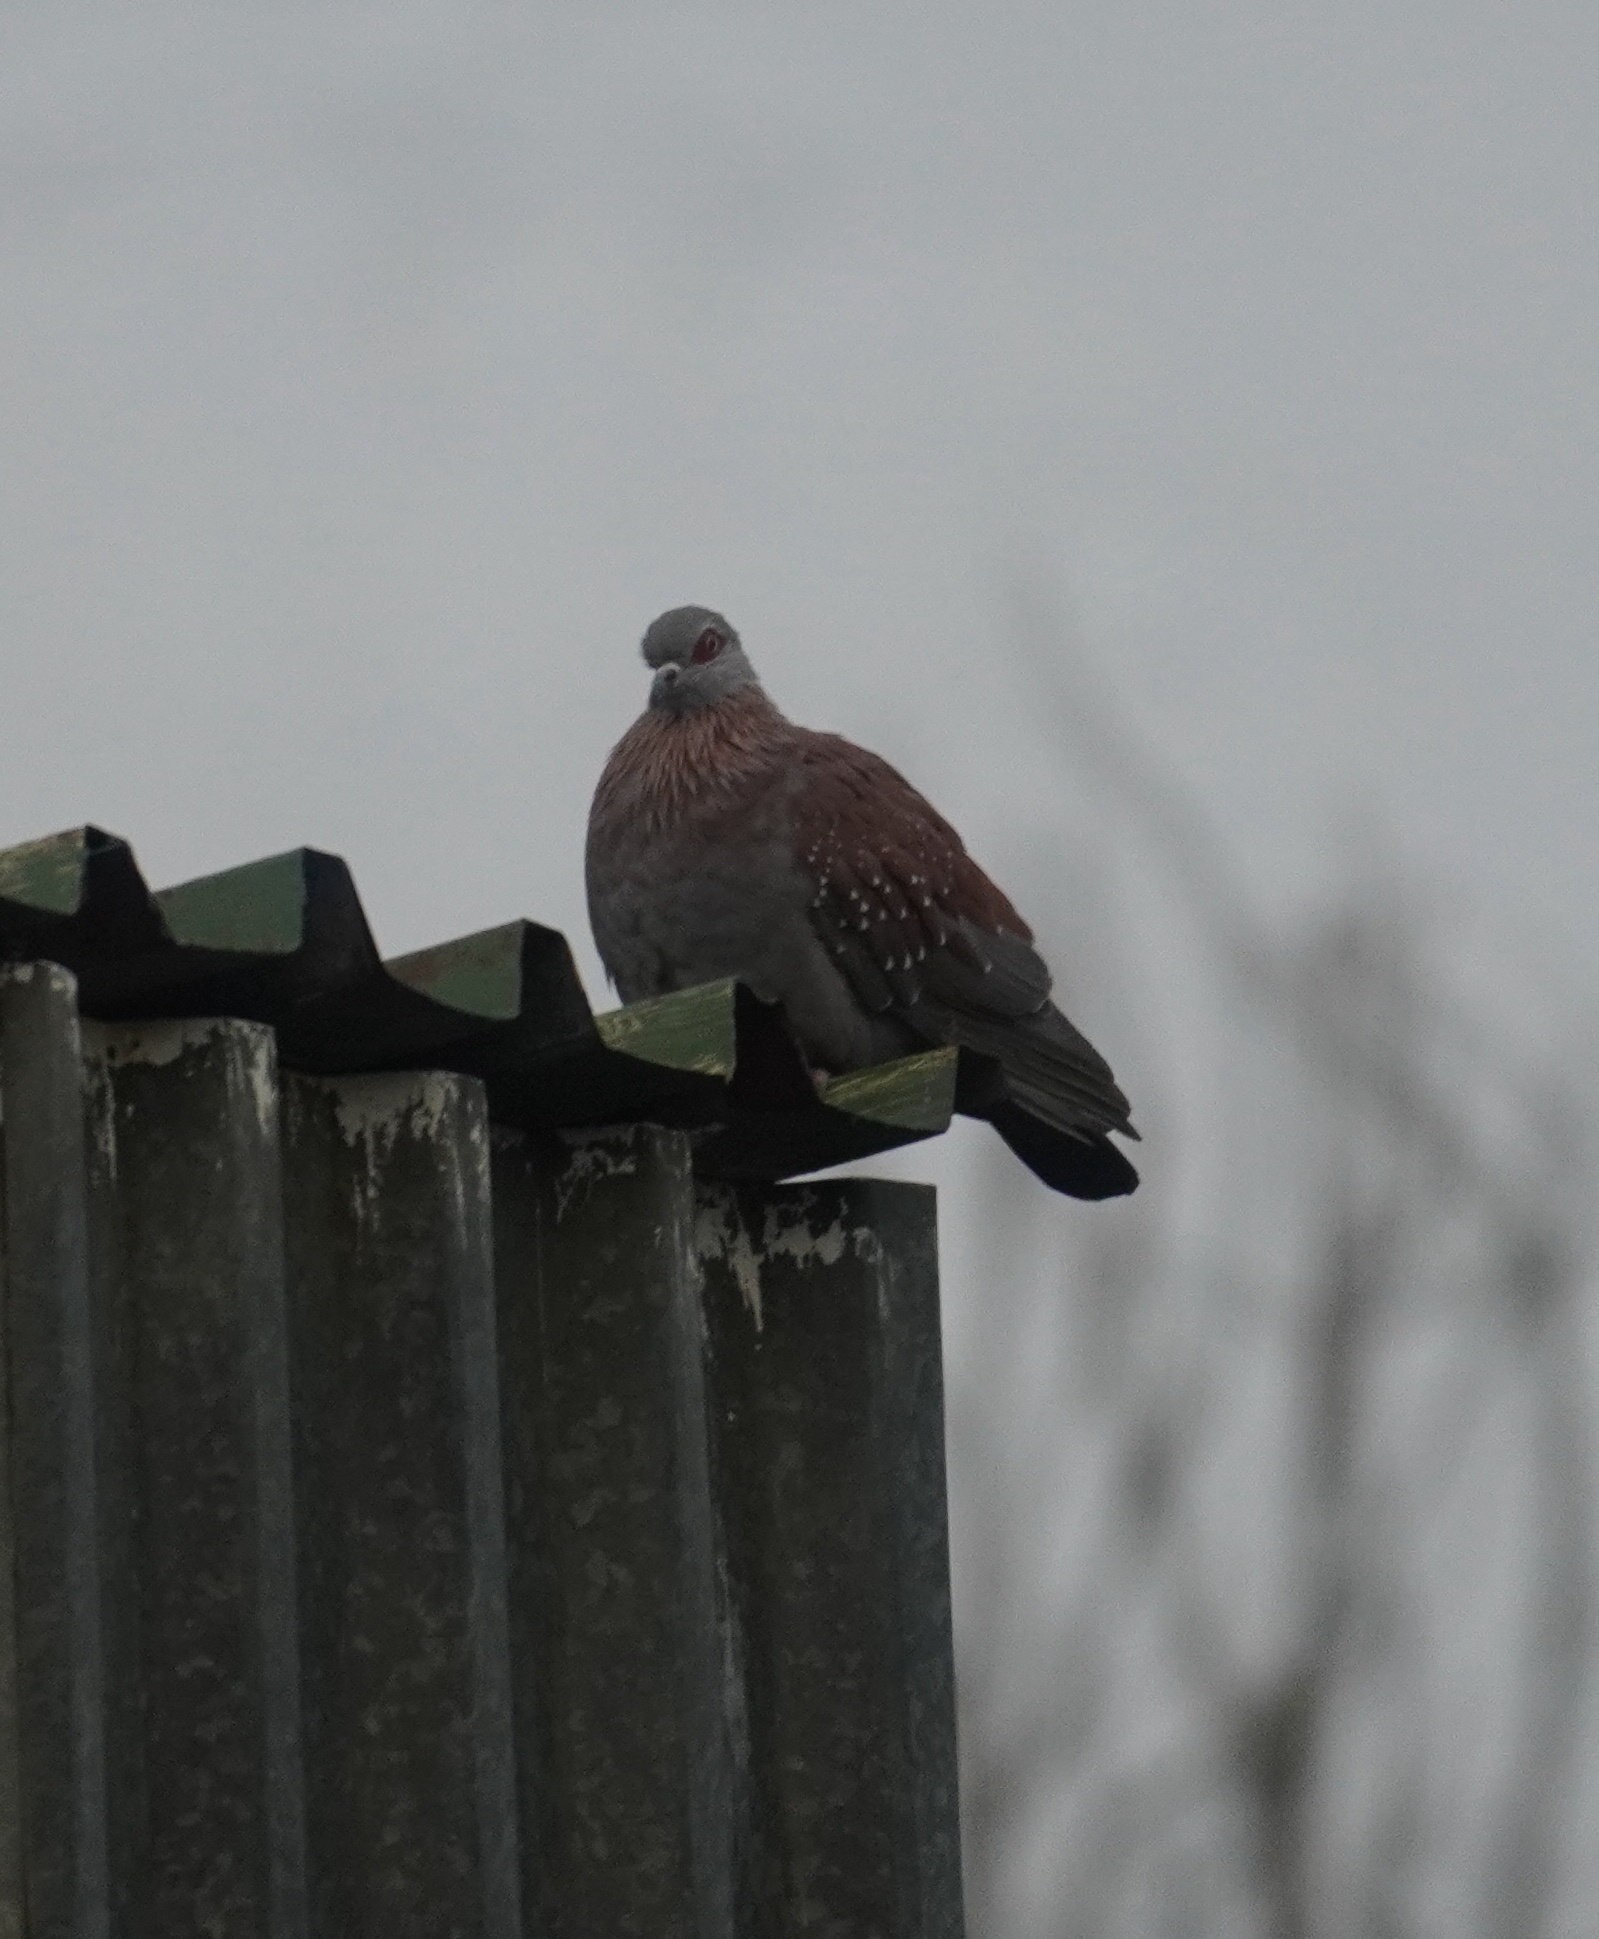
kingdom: Animalia
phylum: Chordata
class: Aves
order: Columbiformes
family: Columbidae
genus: Columba
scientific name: Columba guinea
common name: Speckled pigeon
